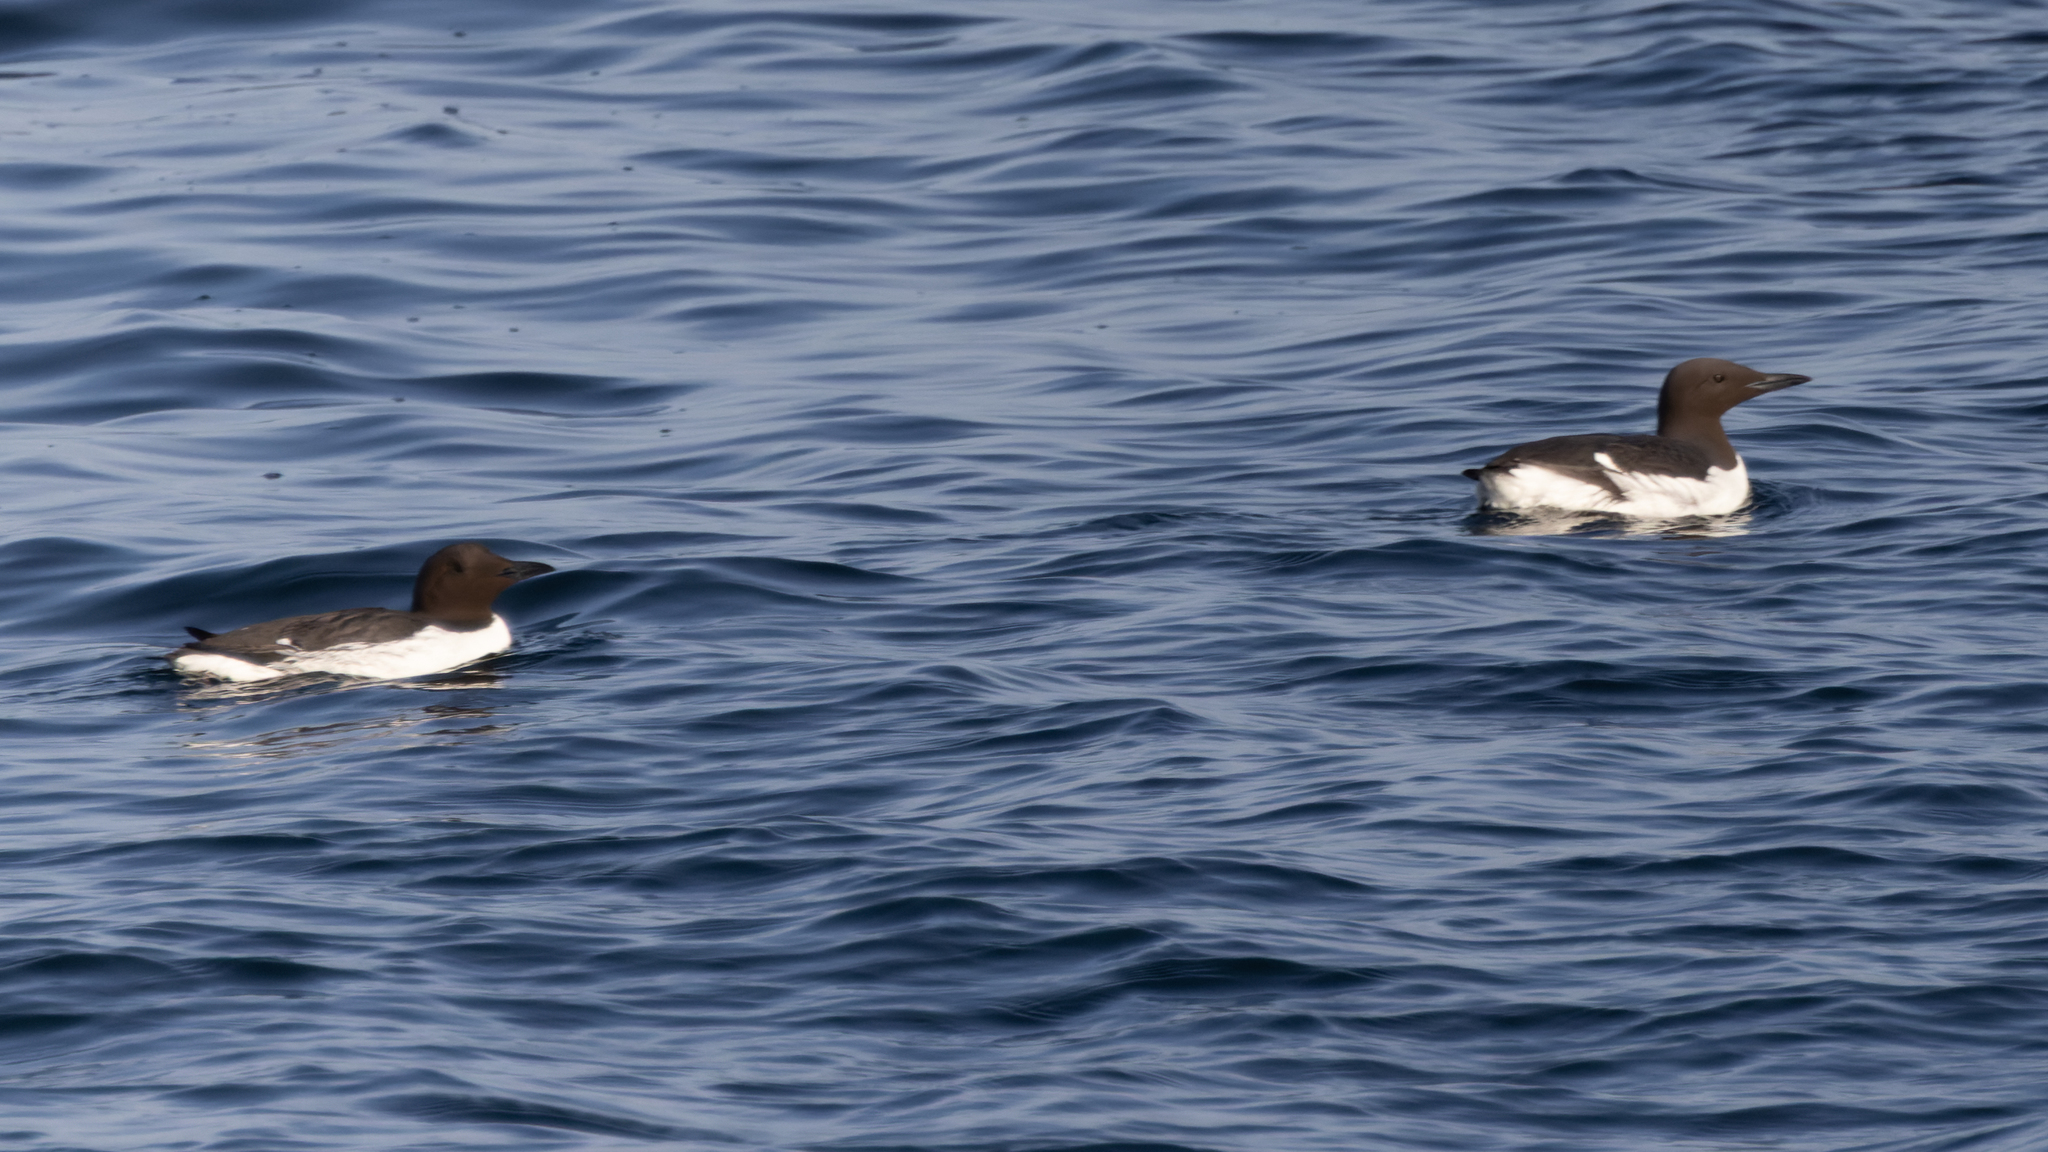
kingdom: Animalia
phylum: Chordata
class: Aves
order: Charadriiformes
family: Alcidae
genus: Uria
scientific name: Uria aalge
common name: Common murre
